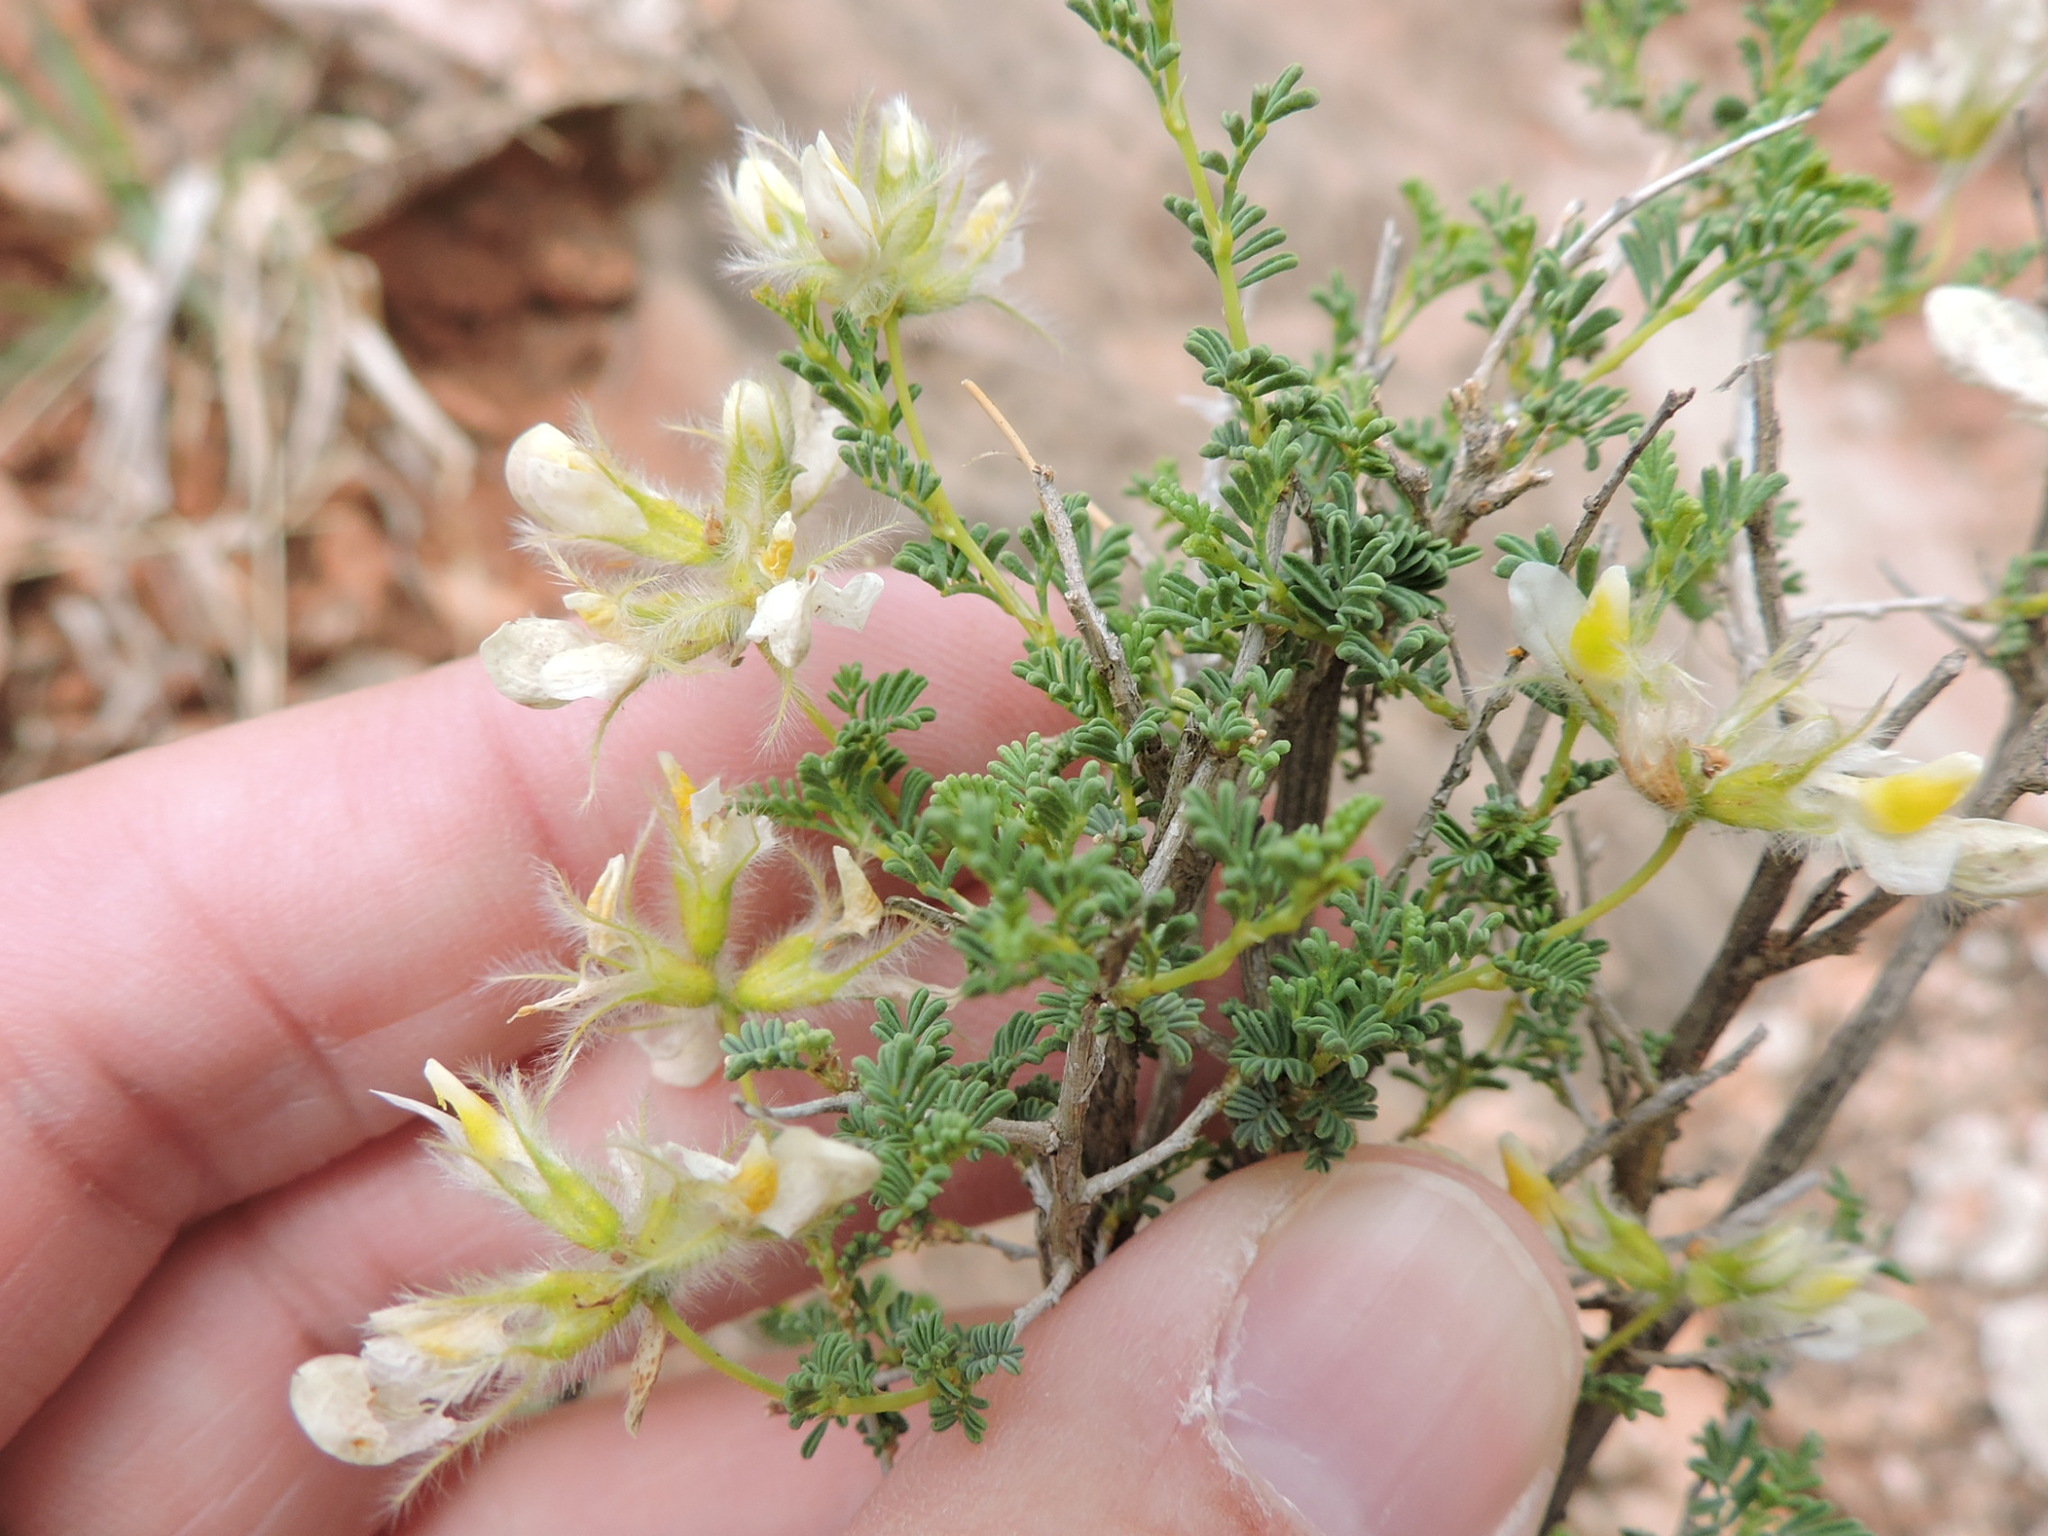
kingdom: Plantae
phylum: Tracheophyta
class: Magnoliopsida
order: Fabales
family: Fabaceae
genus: Dalea
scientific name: Dalea formosa
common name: Feather-plume dalea
